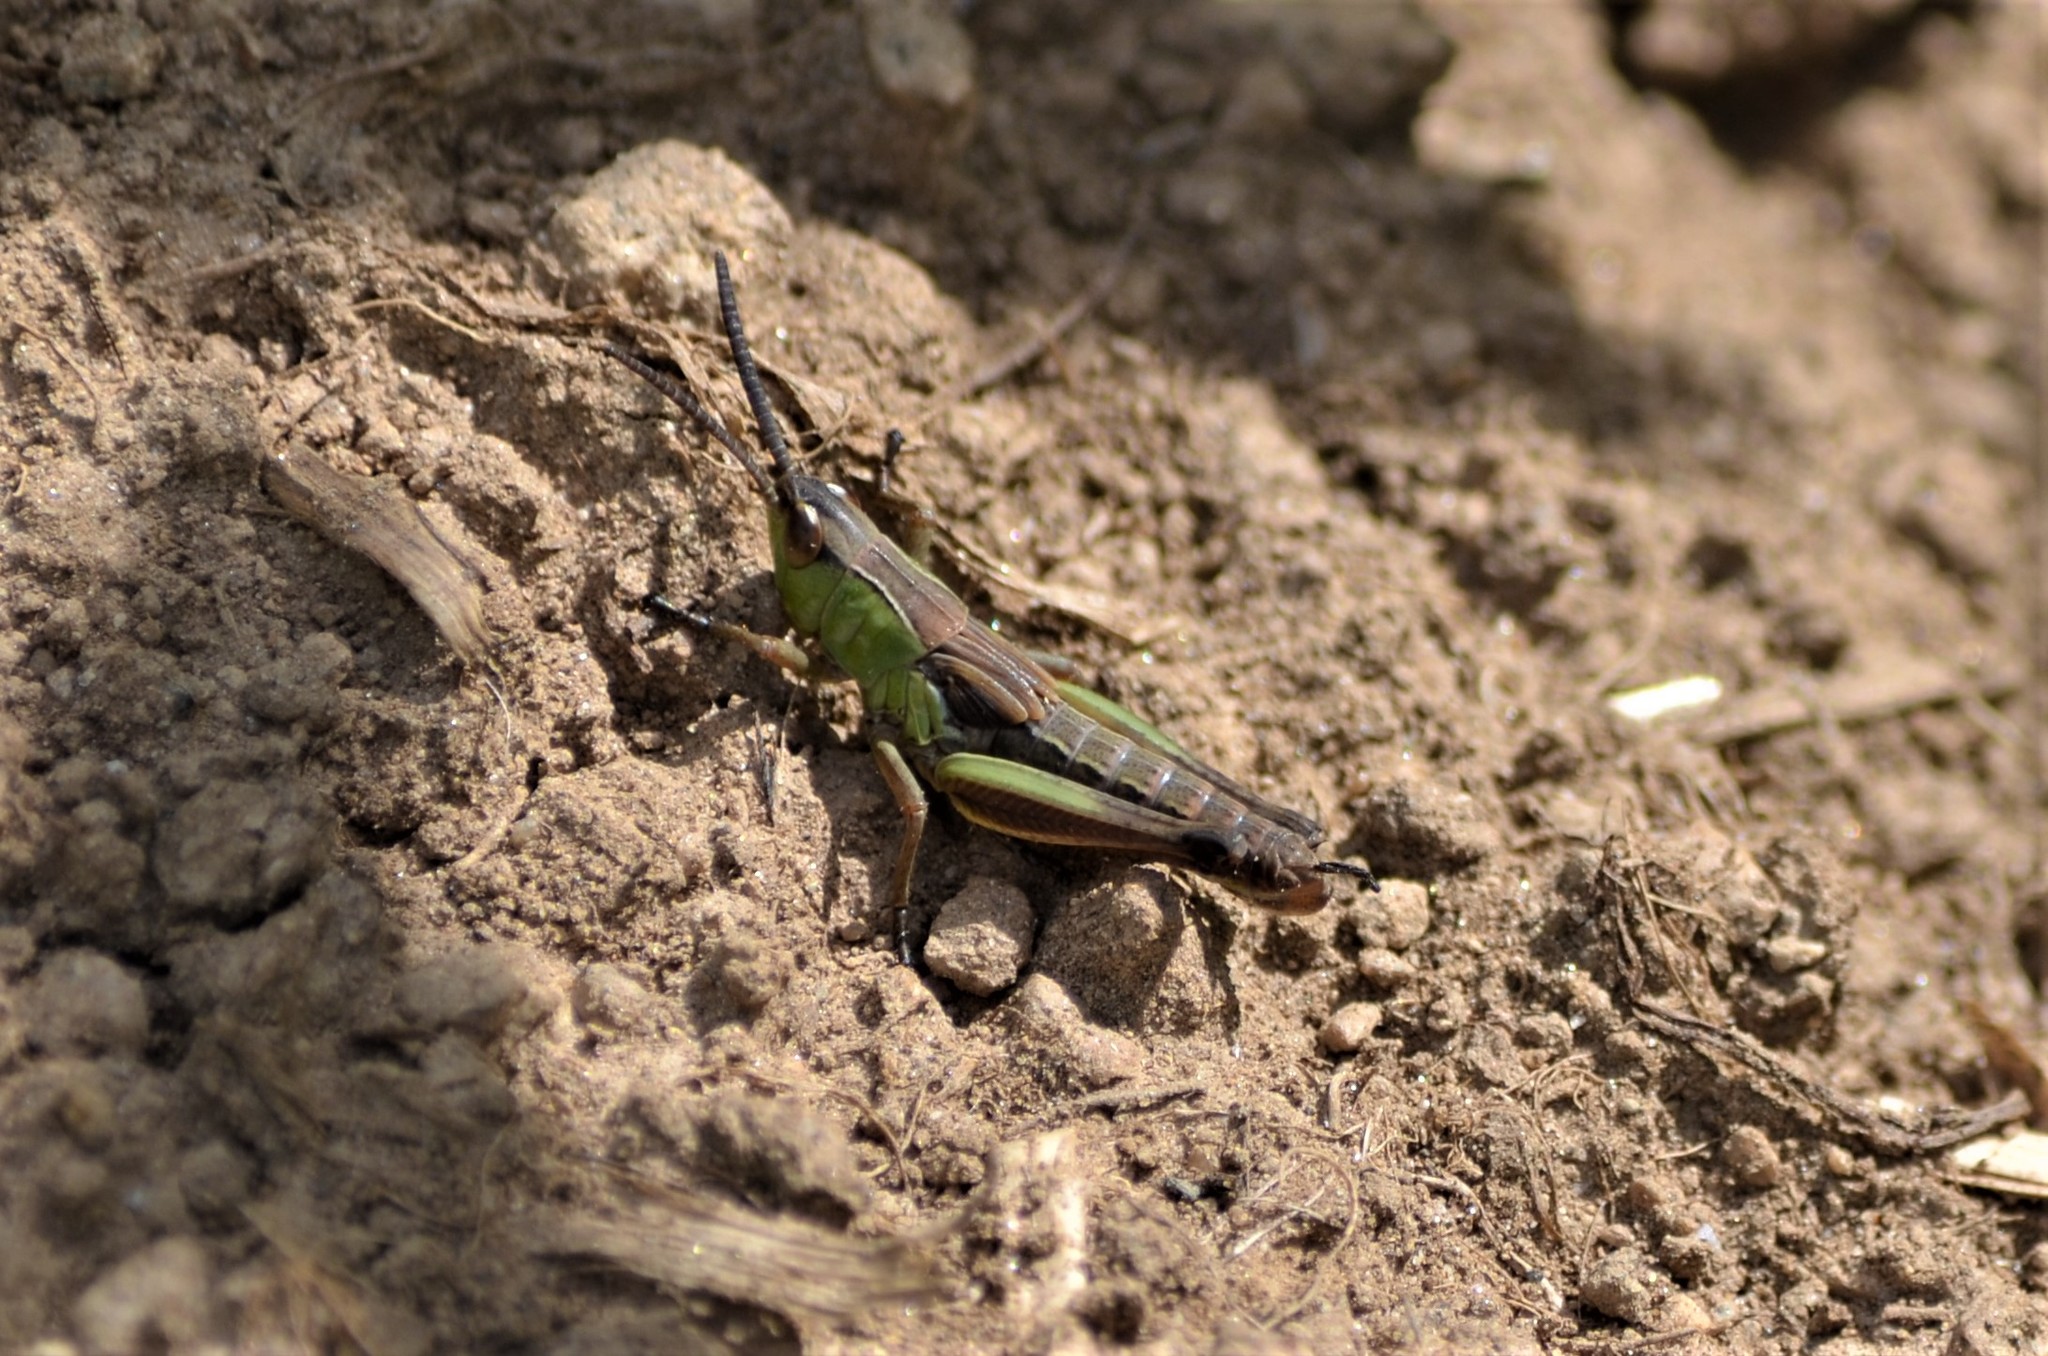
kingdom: Animalia
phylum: Arthropoda
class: Insecta
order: Orthoptera
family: Acrididae
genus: Pseudochorthippus
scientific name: Pseudochorthippus parallelus
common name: Meadow grasshopper
